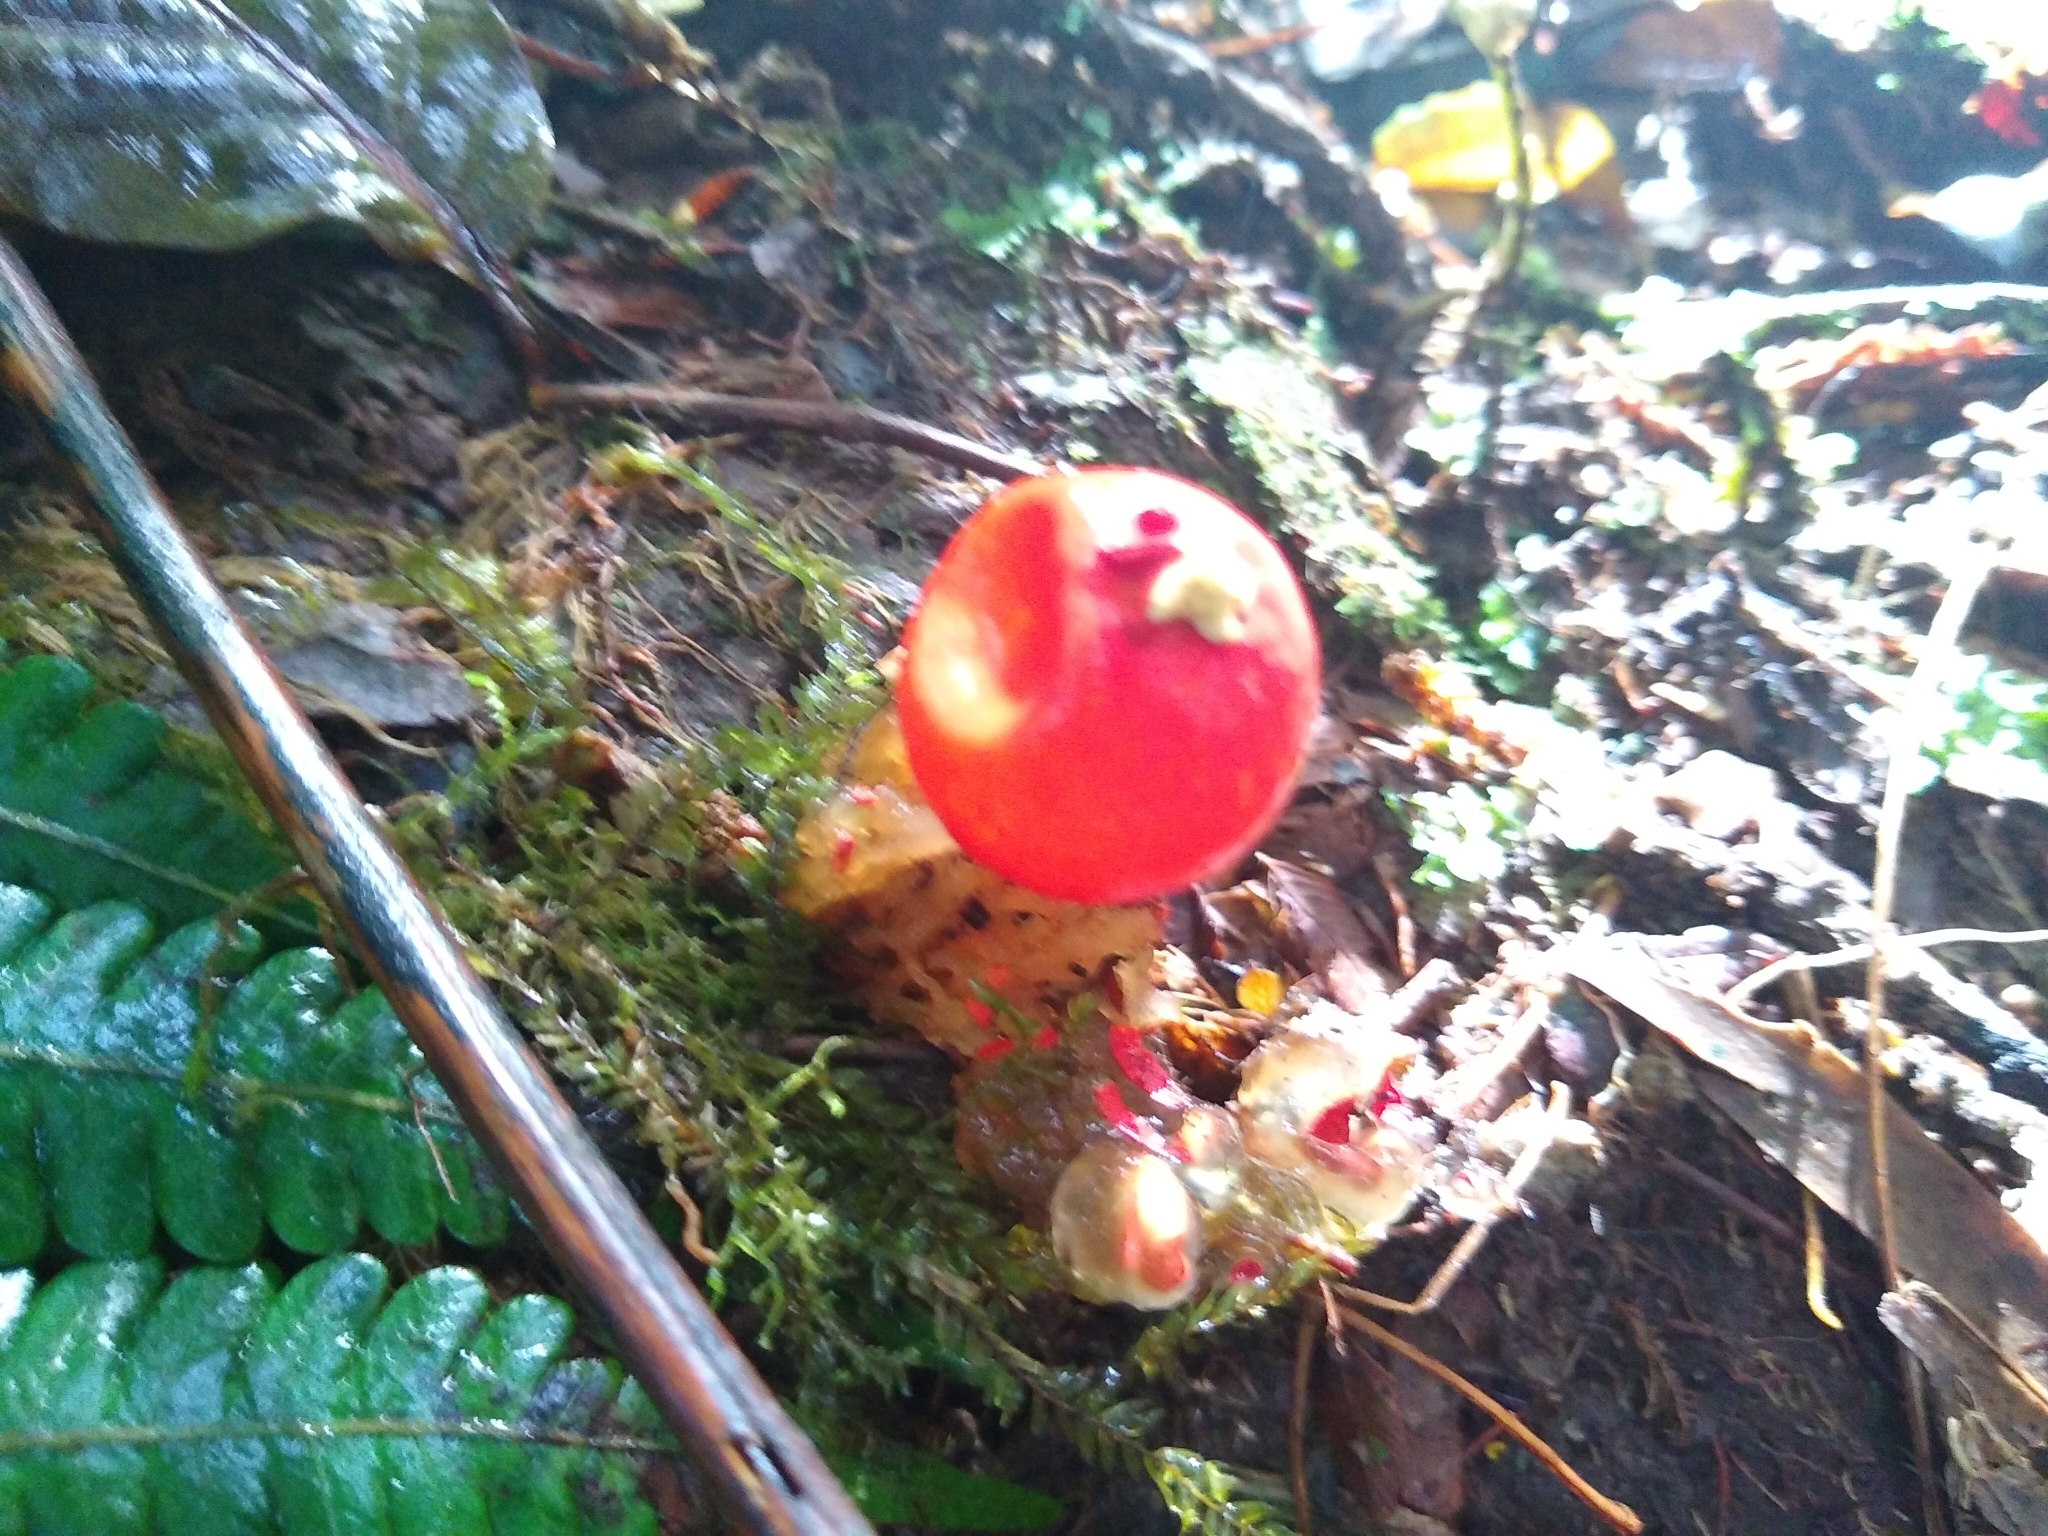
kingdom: Fungi
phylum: Basidiomycota
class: Agaricomycetes
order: Boletales
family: Calostomataceae
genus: Calostoma
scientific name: Calostoma cinnabarinum
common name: Stalked puffball-in-aspic
